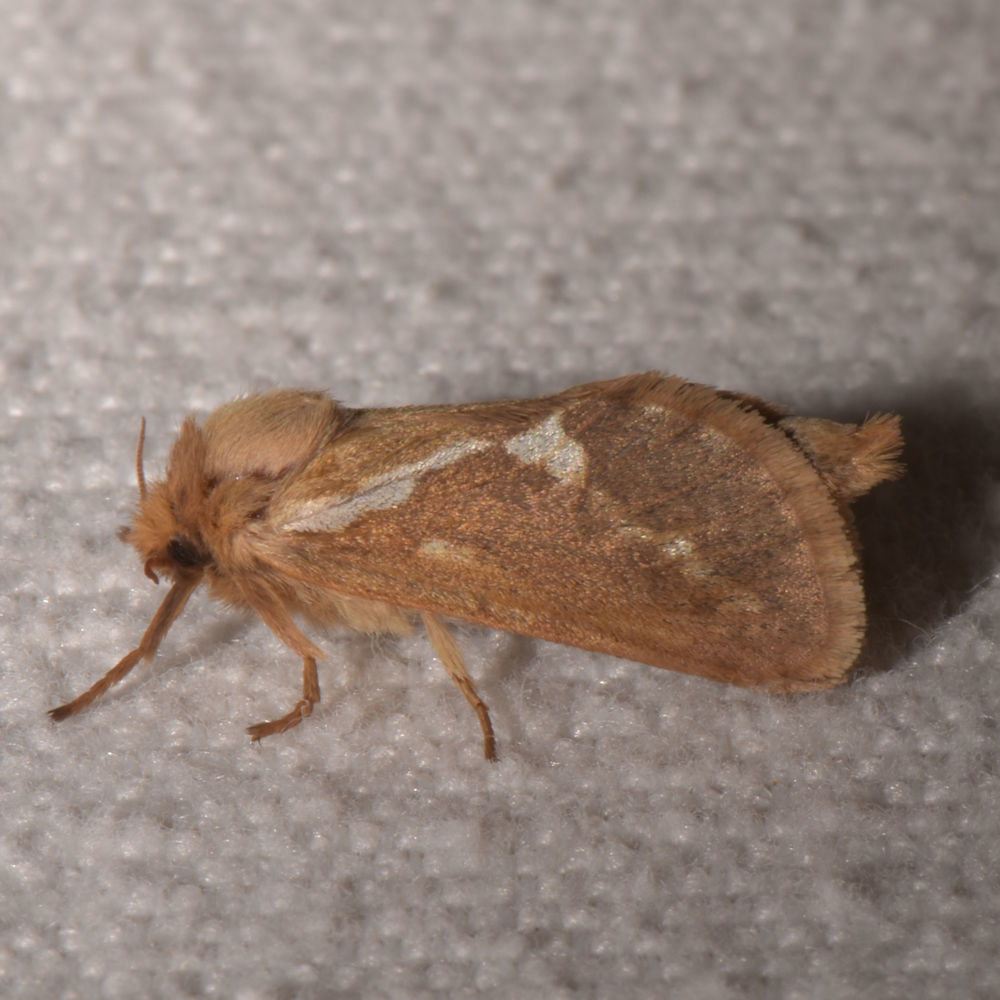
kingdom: Animalia
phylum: Arthropoda
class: Insecta
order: Lepidoptera
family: Hepialidae
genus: Korscheltellus
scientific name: Korscheltellus lupulina
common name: Common swift
